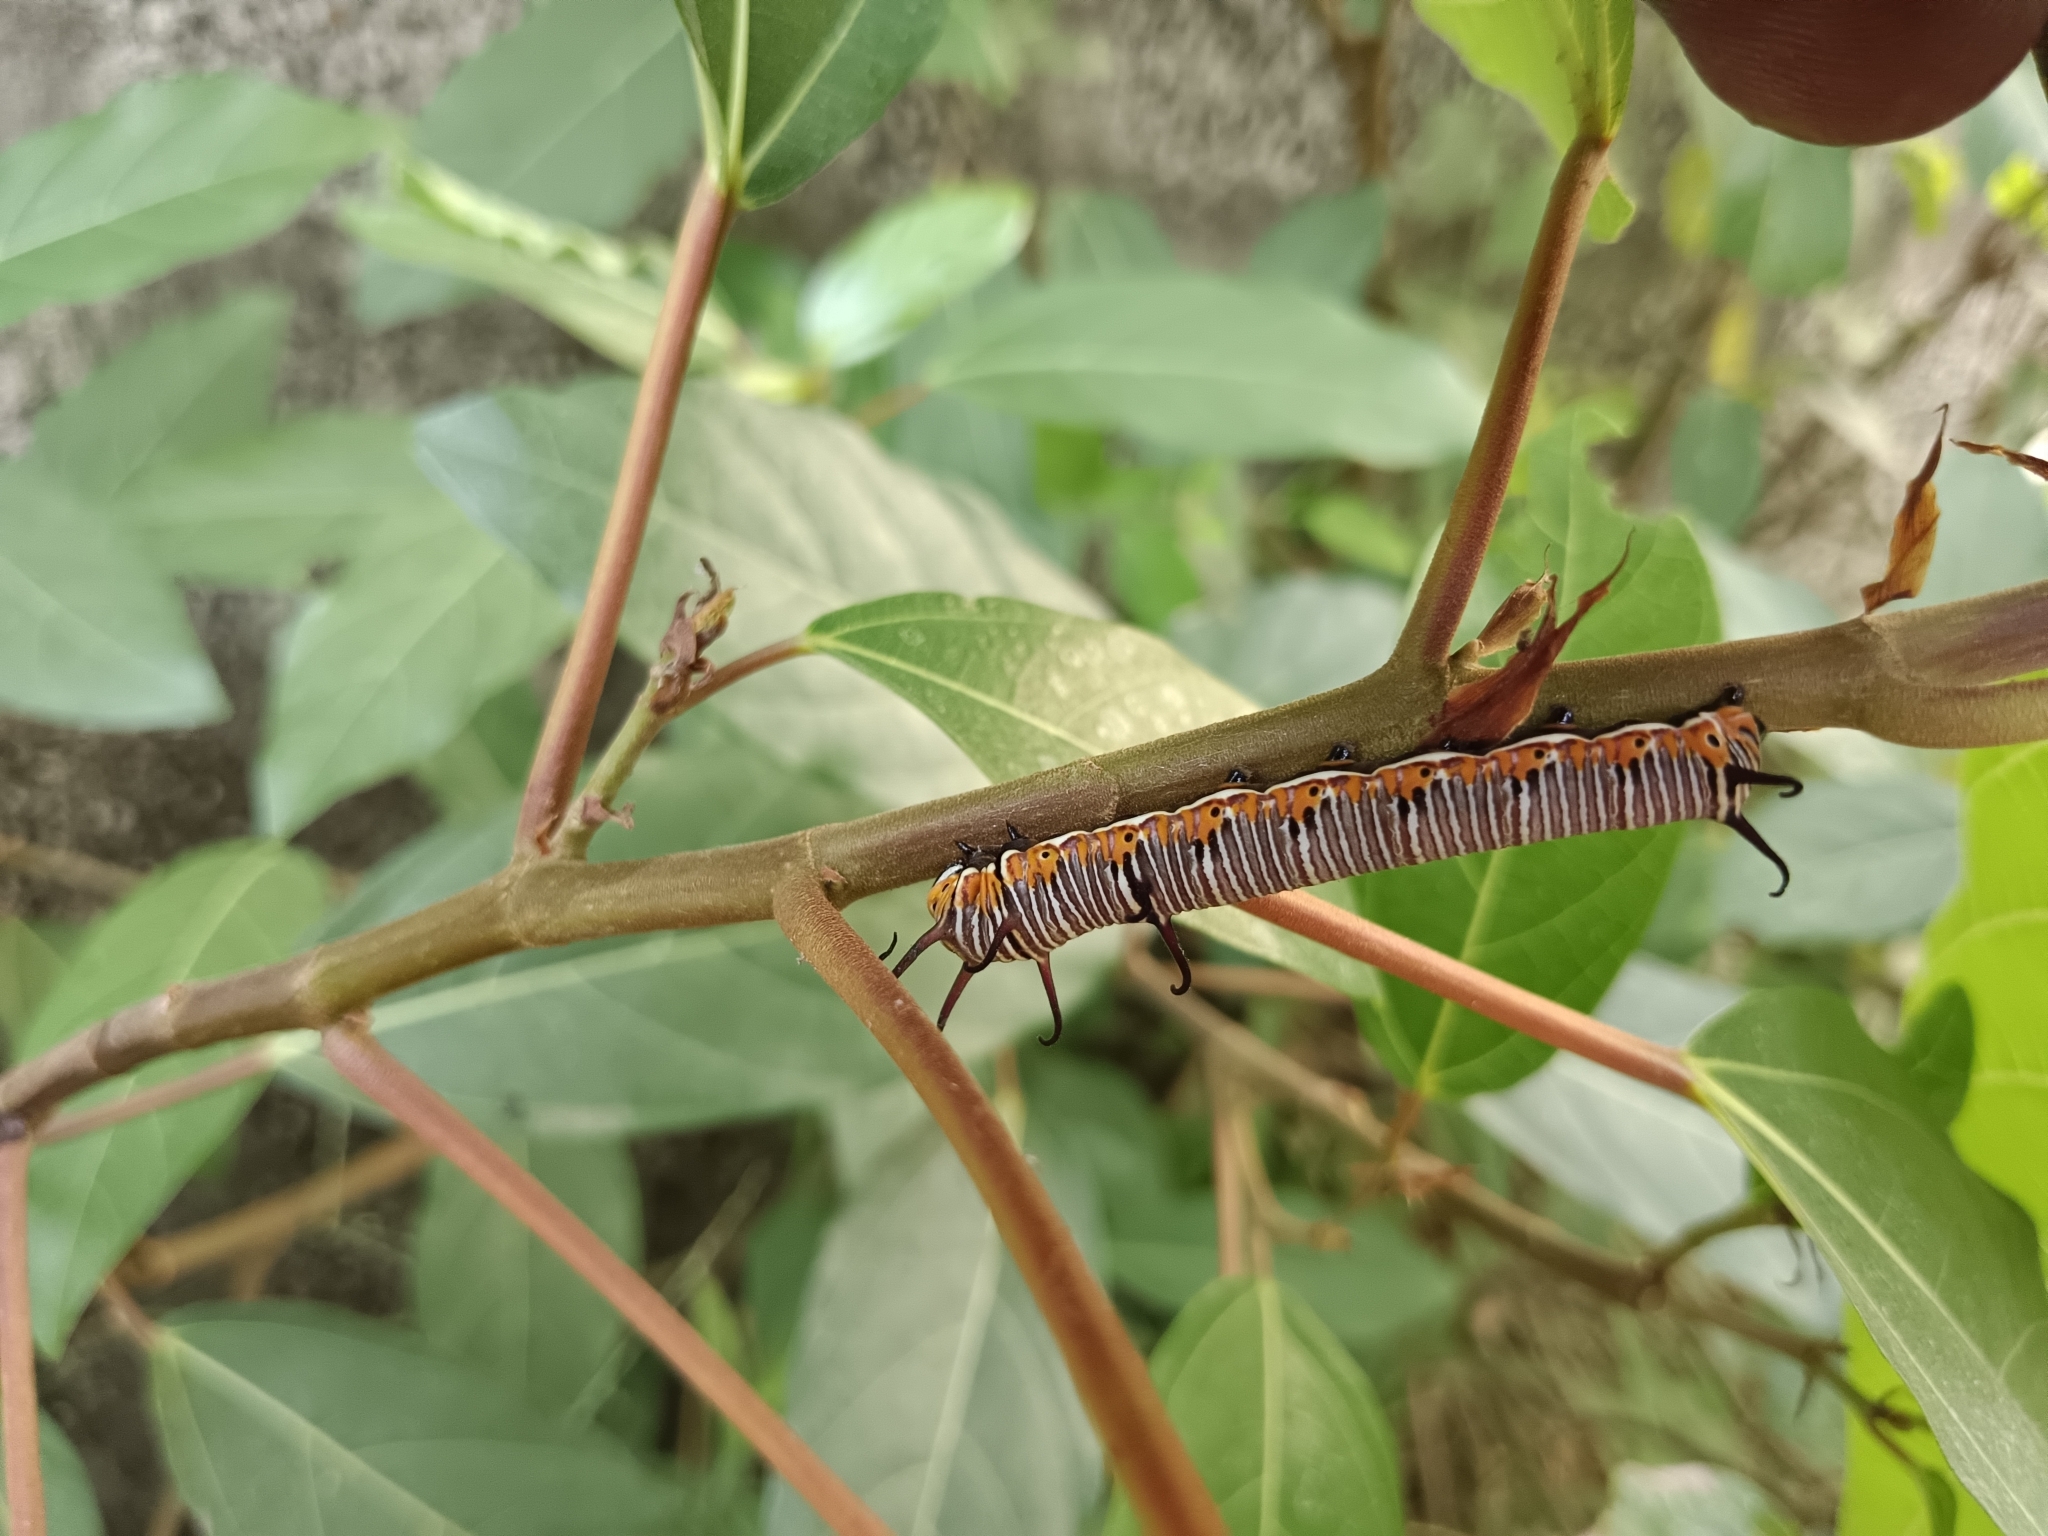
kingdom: Animalia
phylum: Arthropoda
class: Insecta
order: Lepidoptera
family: Nymphalidae
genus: Euploea
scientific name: Euploea core
